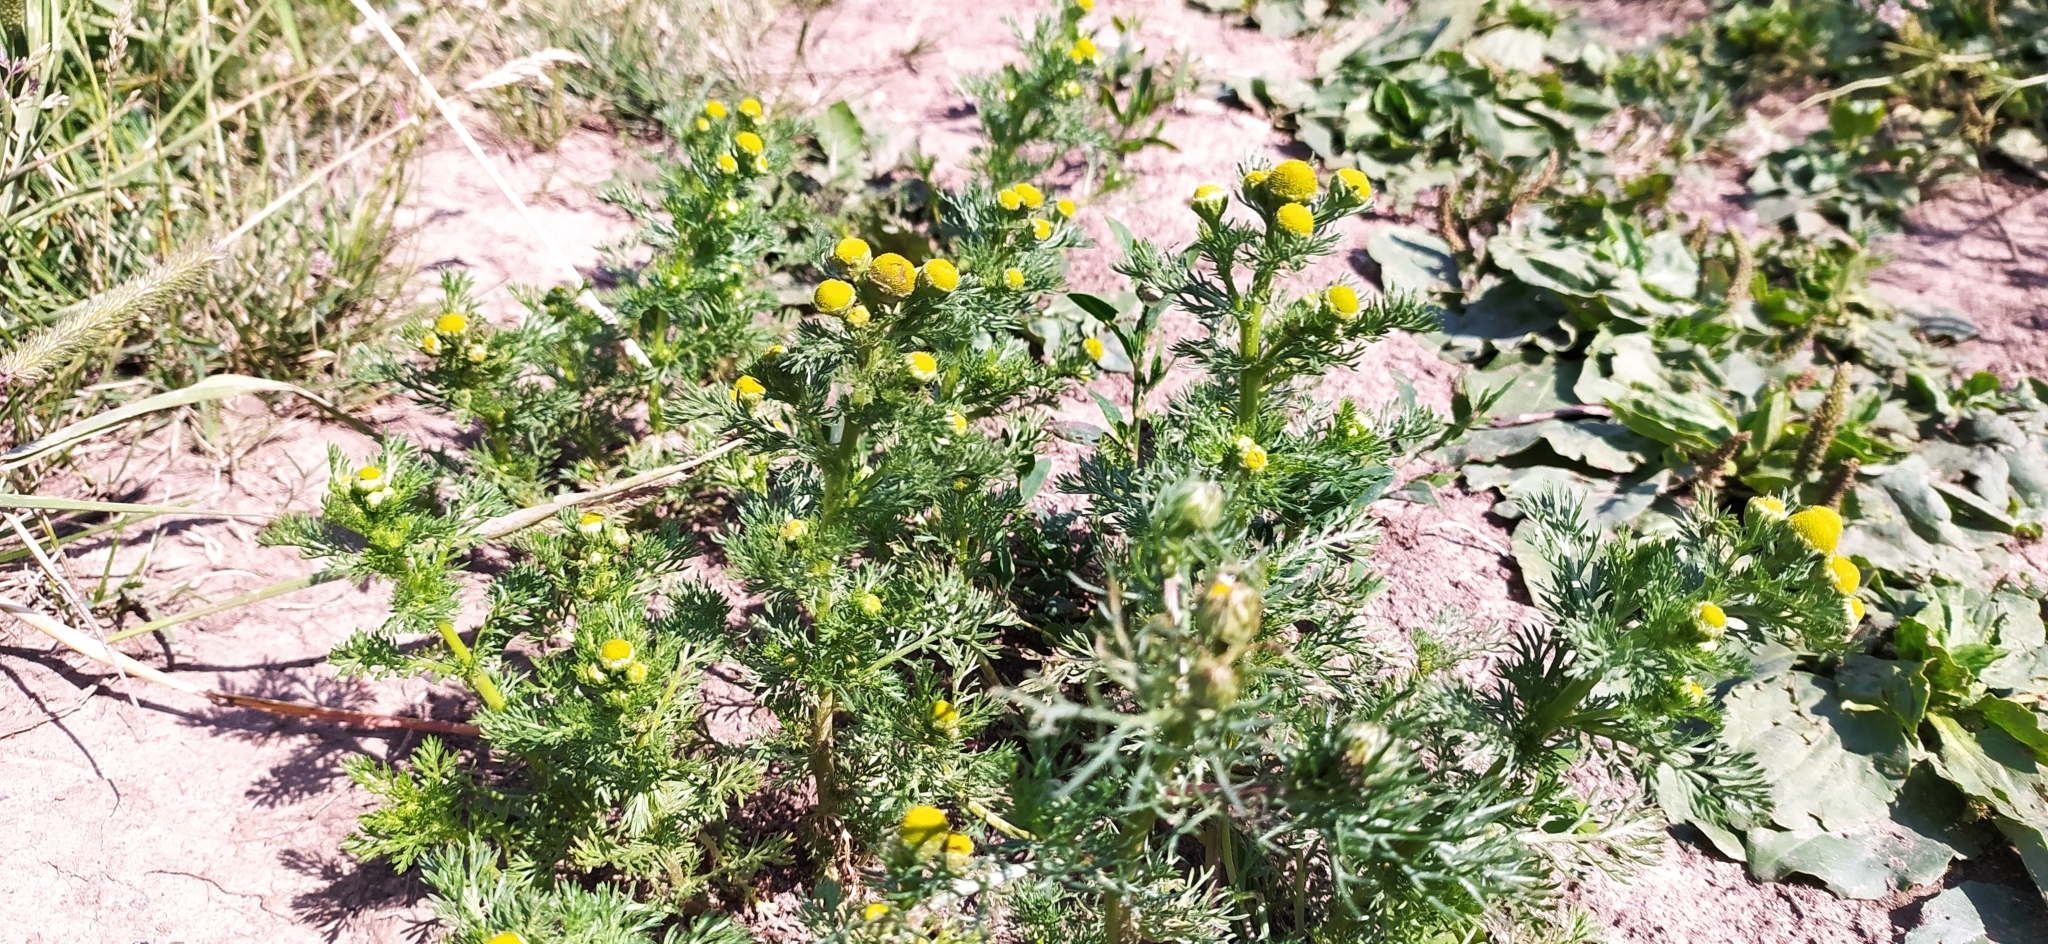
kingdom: Plantae
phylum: Tracheophyta
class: Magnoliopsida
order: Asterales
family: Asteraceae
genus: Matricaria
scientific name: Matricaria discoidea
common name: Disc mayweed
